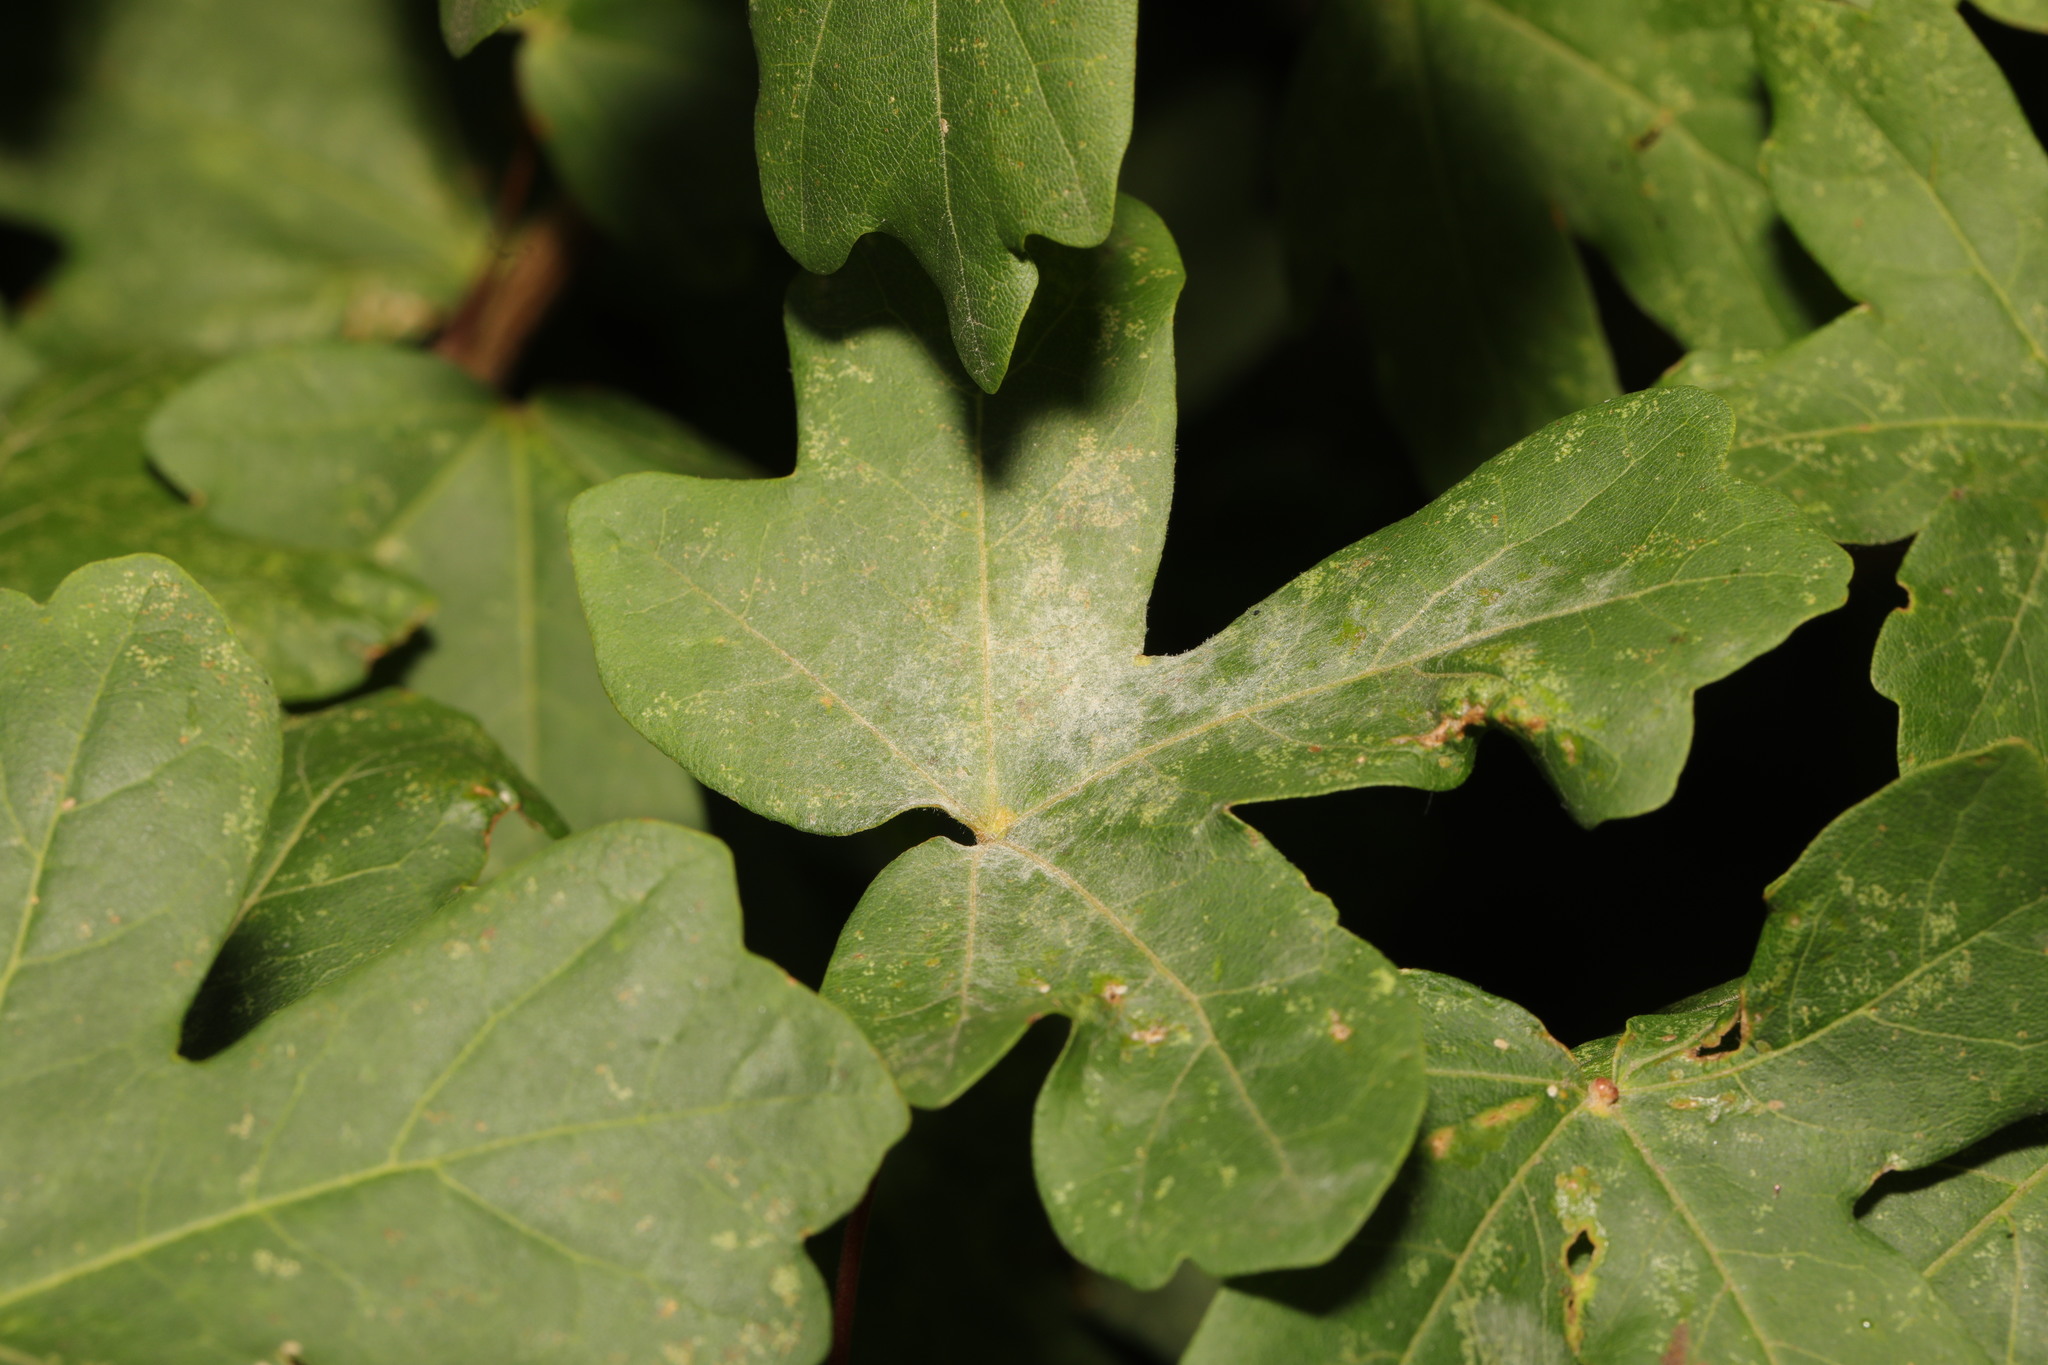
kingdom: Fungi
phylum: Ascomycota
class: Leotiomycetes
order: Helotiales
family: Erysiphaceae
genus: Sawadaea
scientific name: Sawadaea bicornis
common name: Maple mildew
